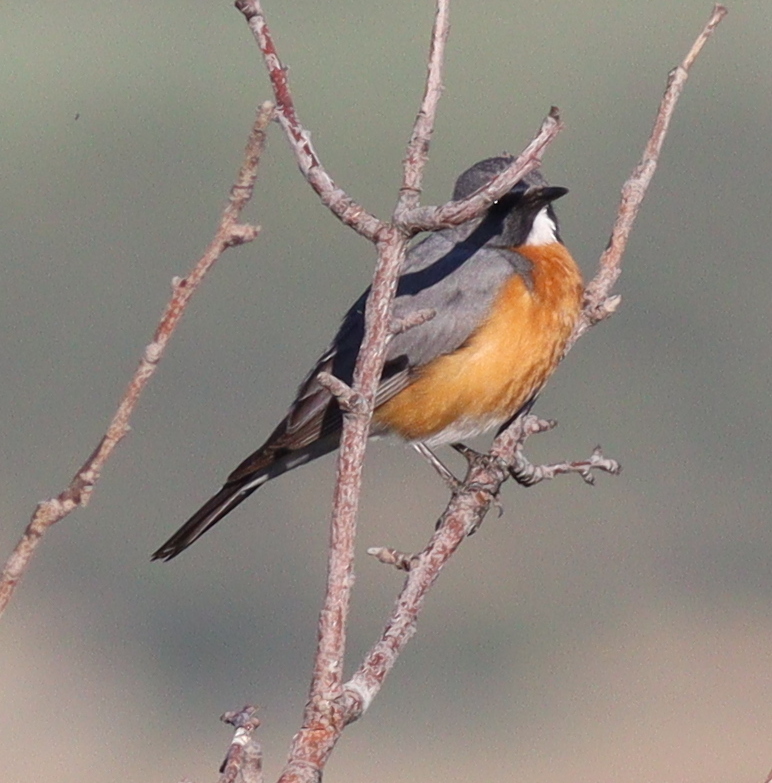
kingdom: Animalia
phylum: Chordata
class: Aves
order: Passeriformes
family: Muscicapidae
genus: Irania
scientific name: Irania gutturalis
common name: White-throated robin
